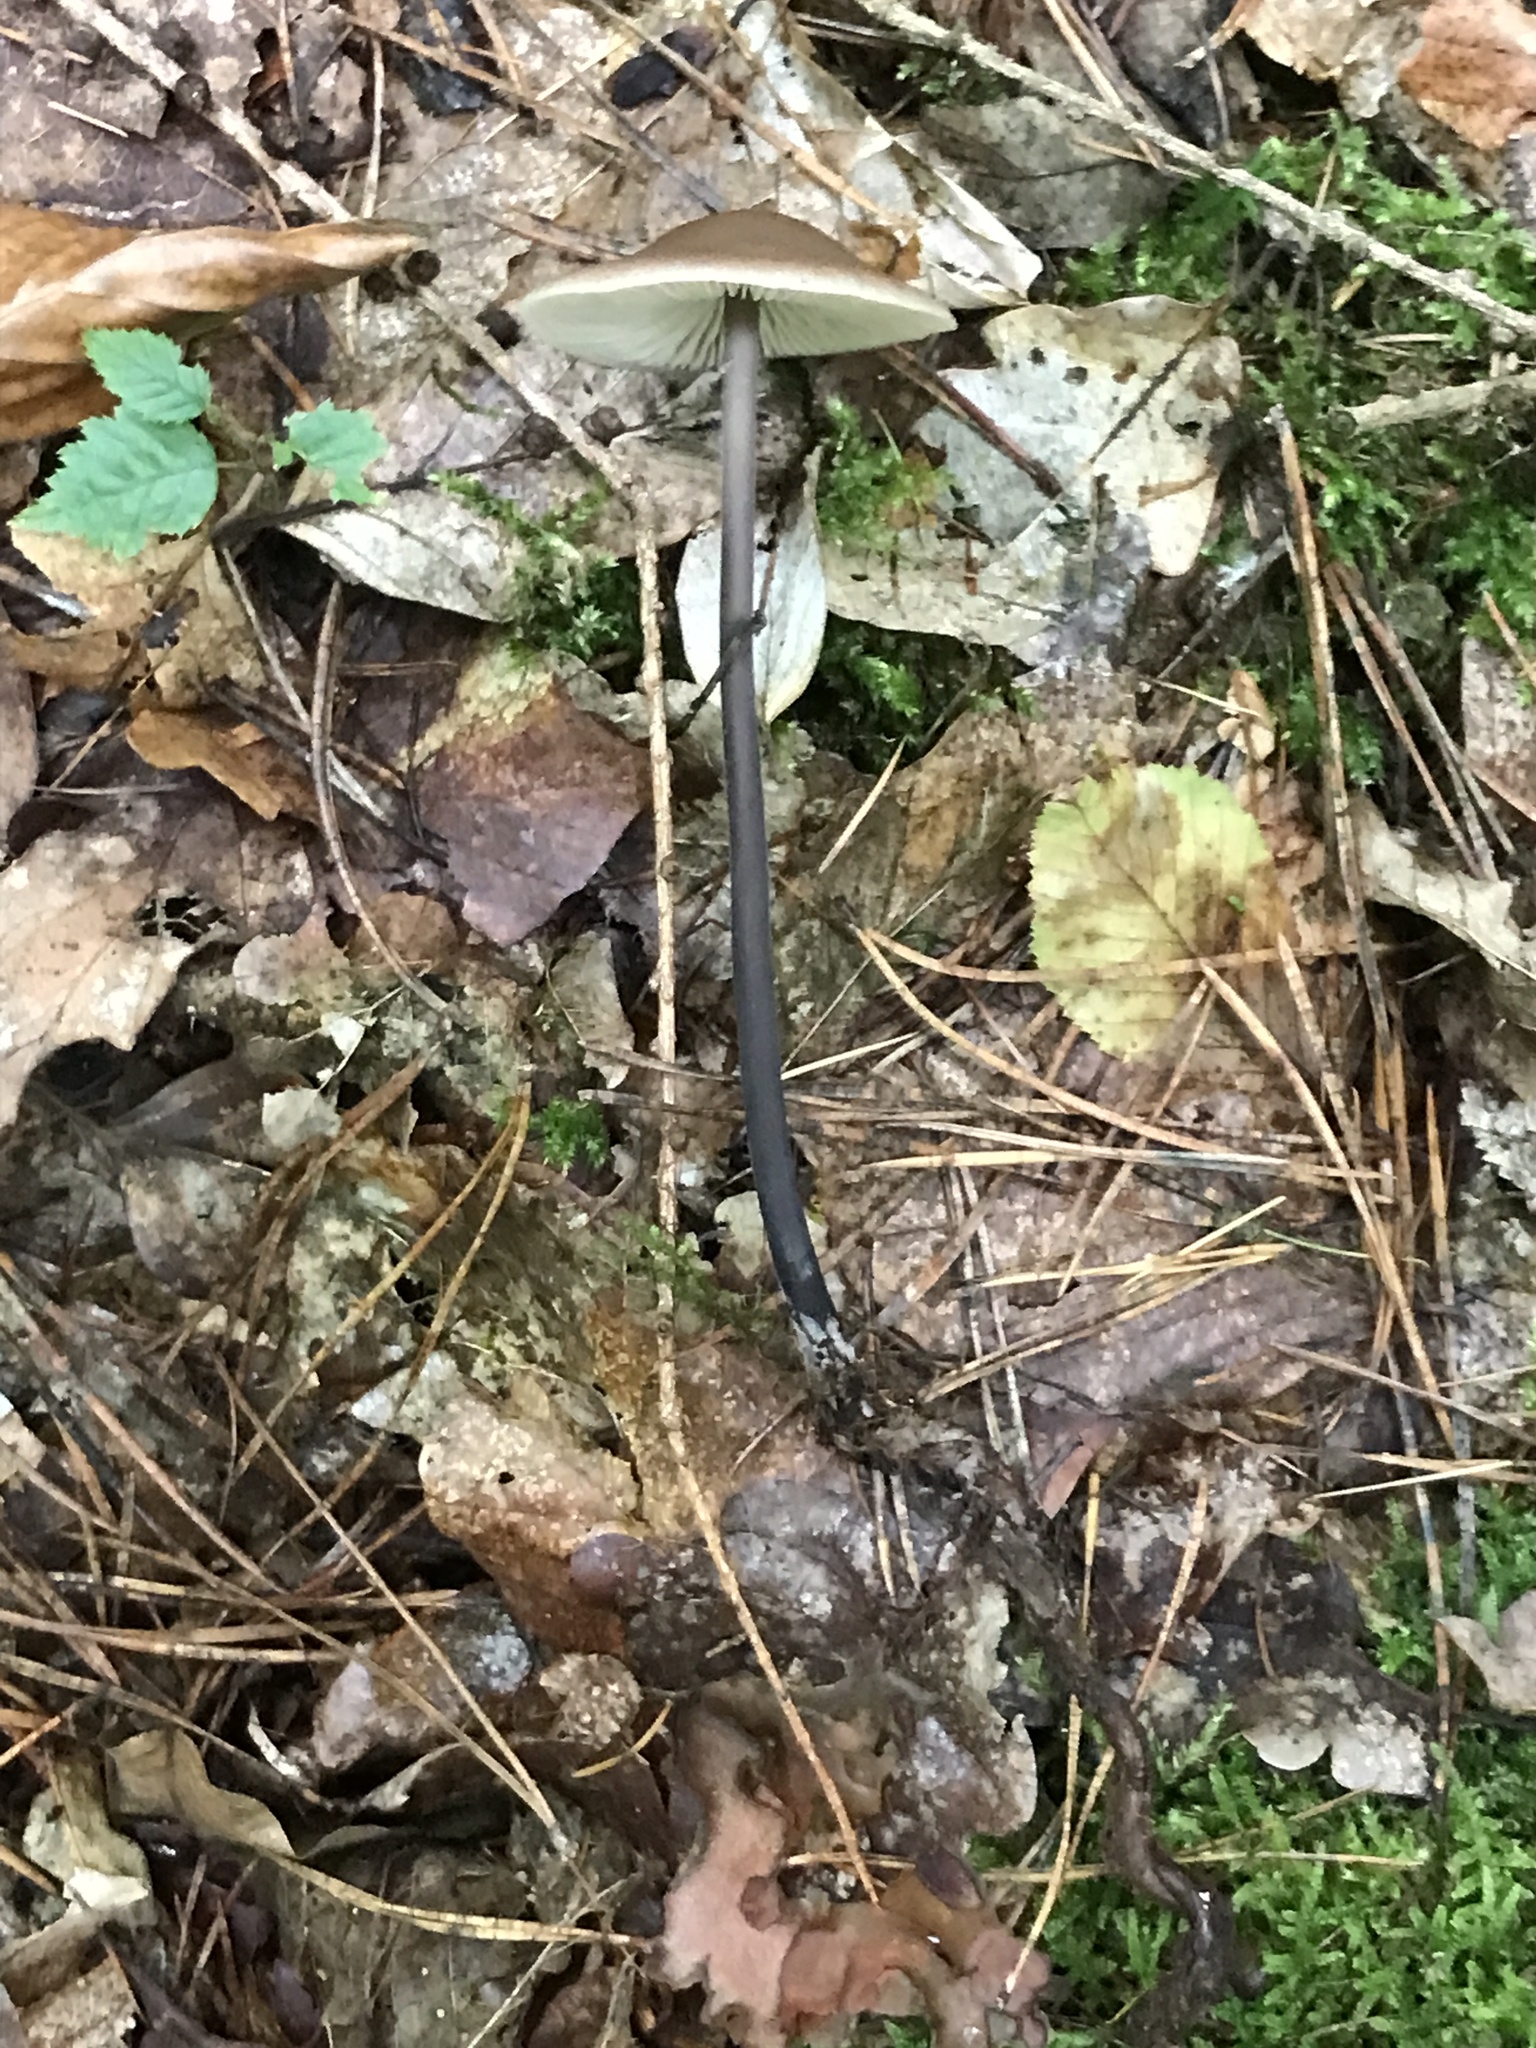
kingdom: Fungi
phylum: Basidiomycota
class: Agaricomycetes
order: Agaricales
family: Omphalotaceae
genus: Mycetinis
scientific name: Mycetinis alliaceus
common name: Garlic parachute
